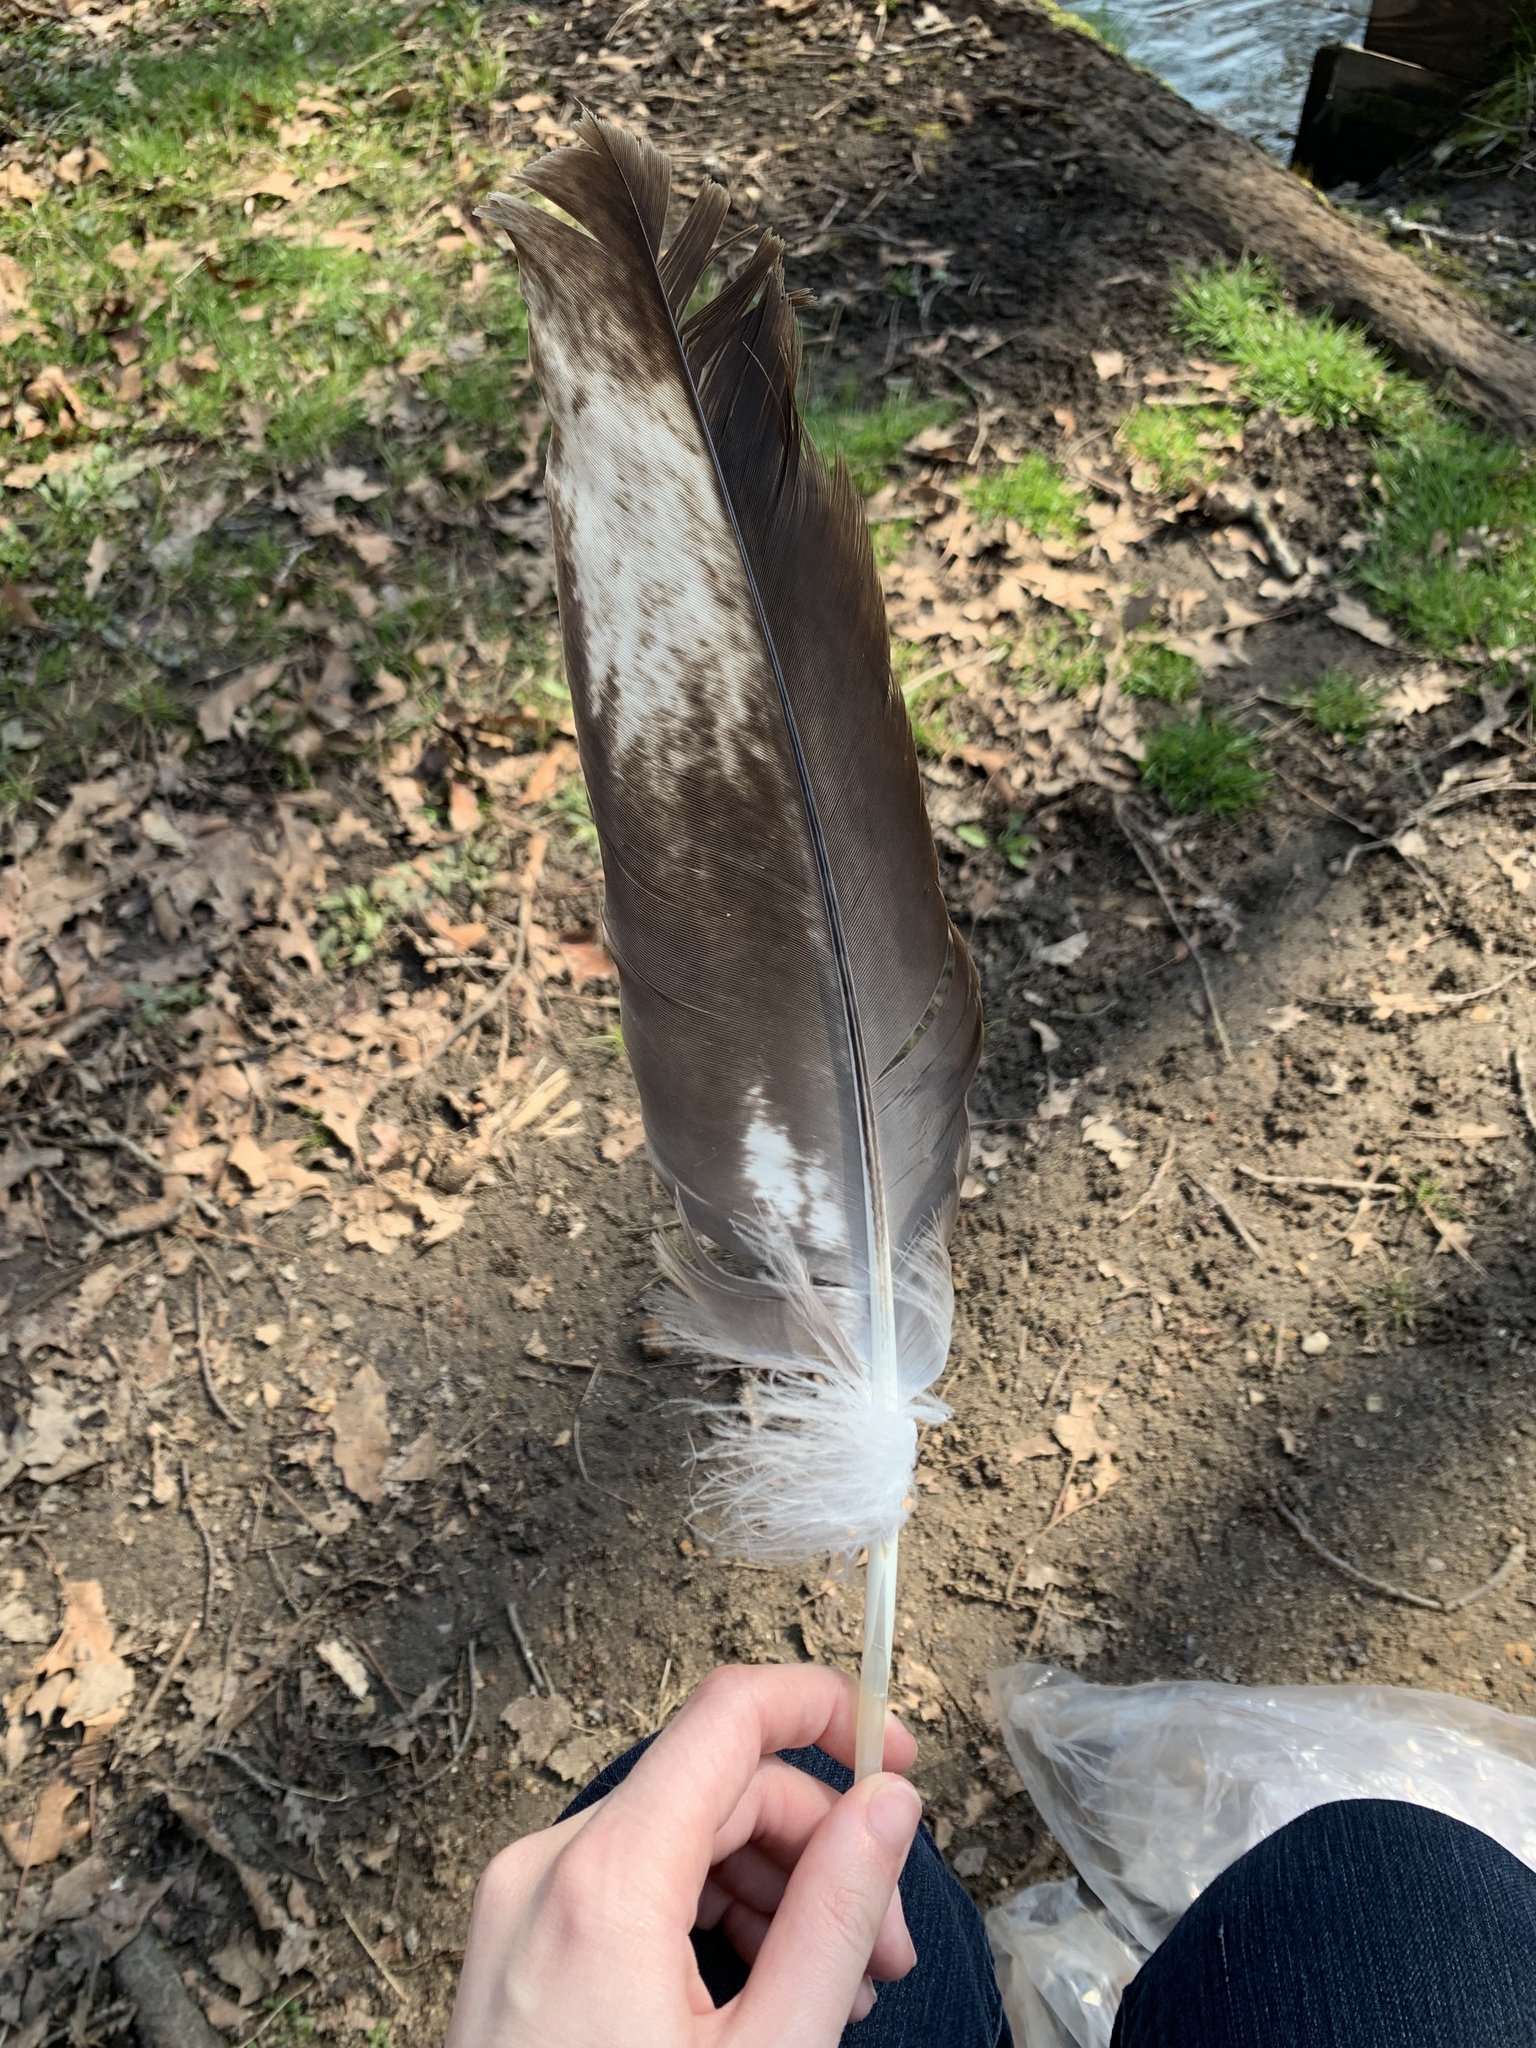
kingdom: Animalia
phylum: Chordata
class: Aves
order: Accipitriformes
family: Accipitridae
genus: Haliaeetus
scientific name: Haliaeetus leucocephalus
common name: Bald eagle
